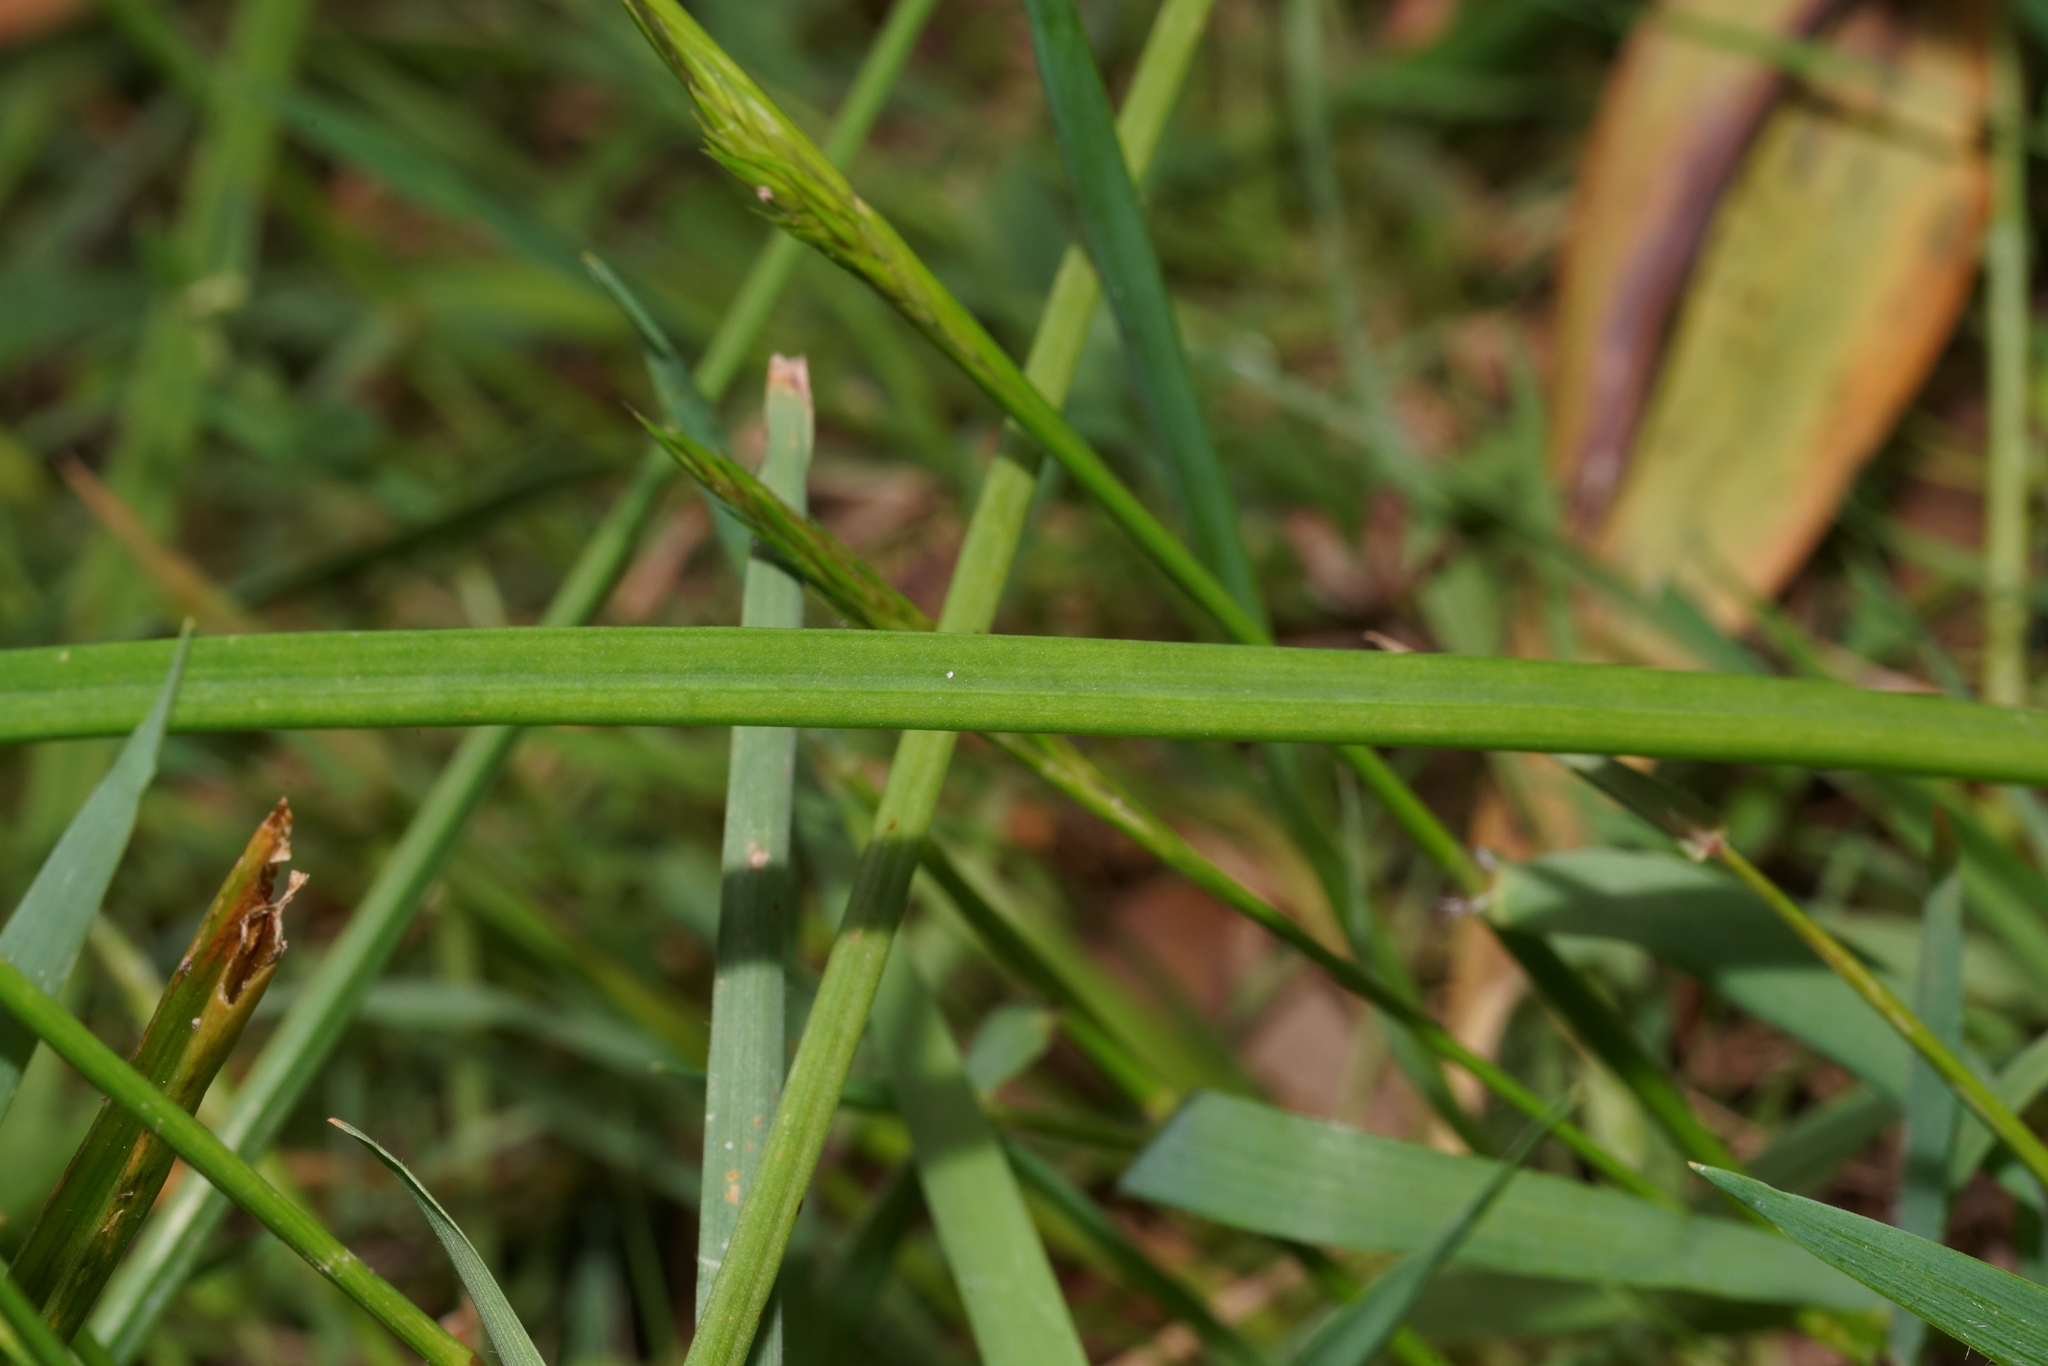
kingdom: Plantae
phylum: Tracheophyta
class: Liliopsida
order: Asparagales
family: Asphodelaceae
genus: Bulbine
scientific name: Bulbine bulbosa
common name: Golden-lily
